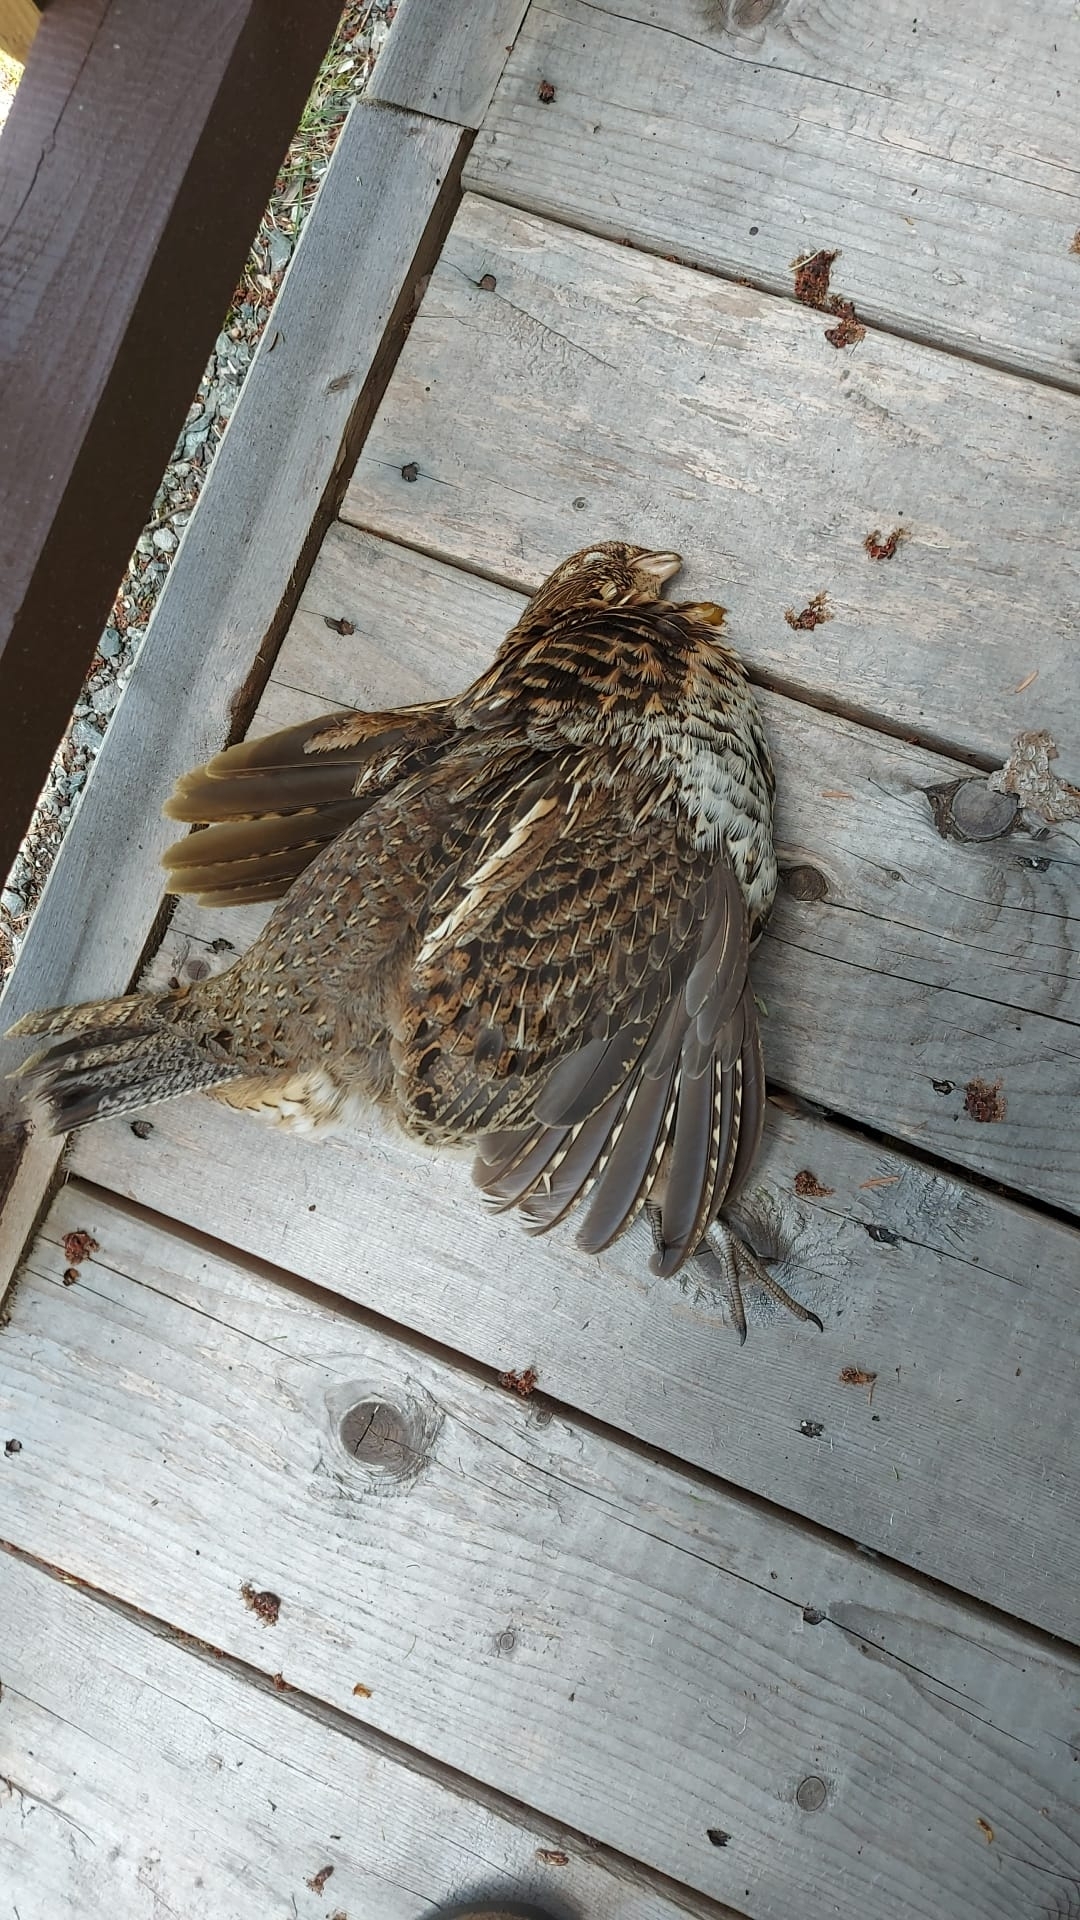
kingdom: Animalia
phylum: Chordata
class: Aves
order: Galliformes
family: Phasianidae
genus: Bonasa
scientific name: Bonasa umbellus
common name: Ruffed grouse
